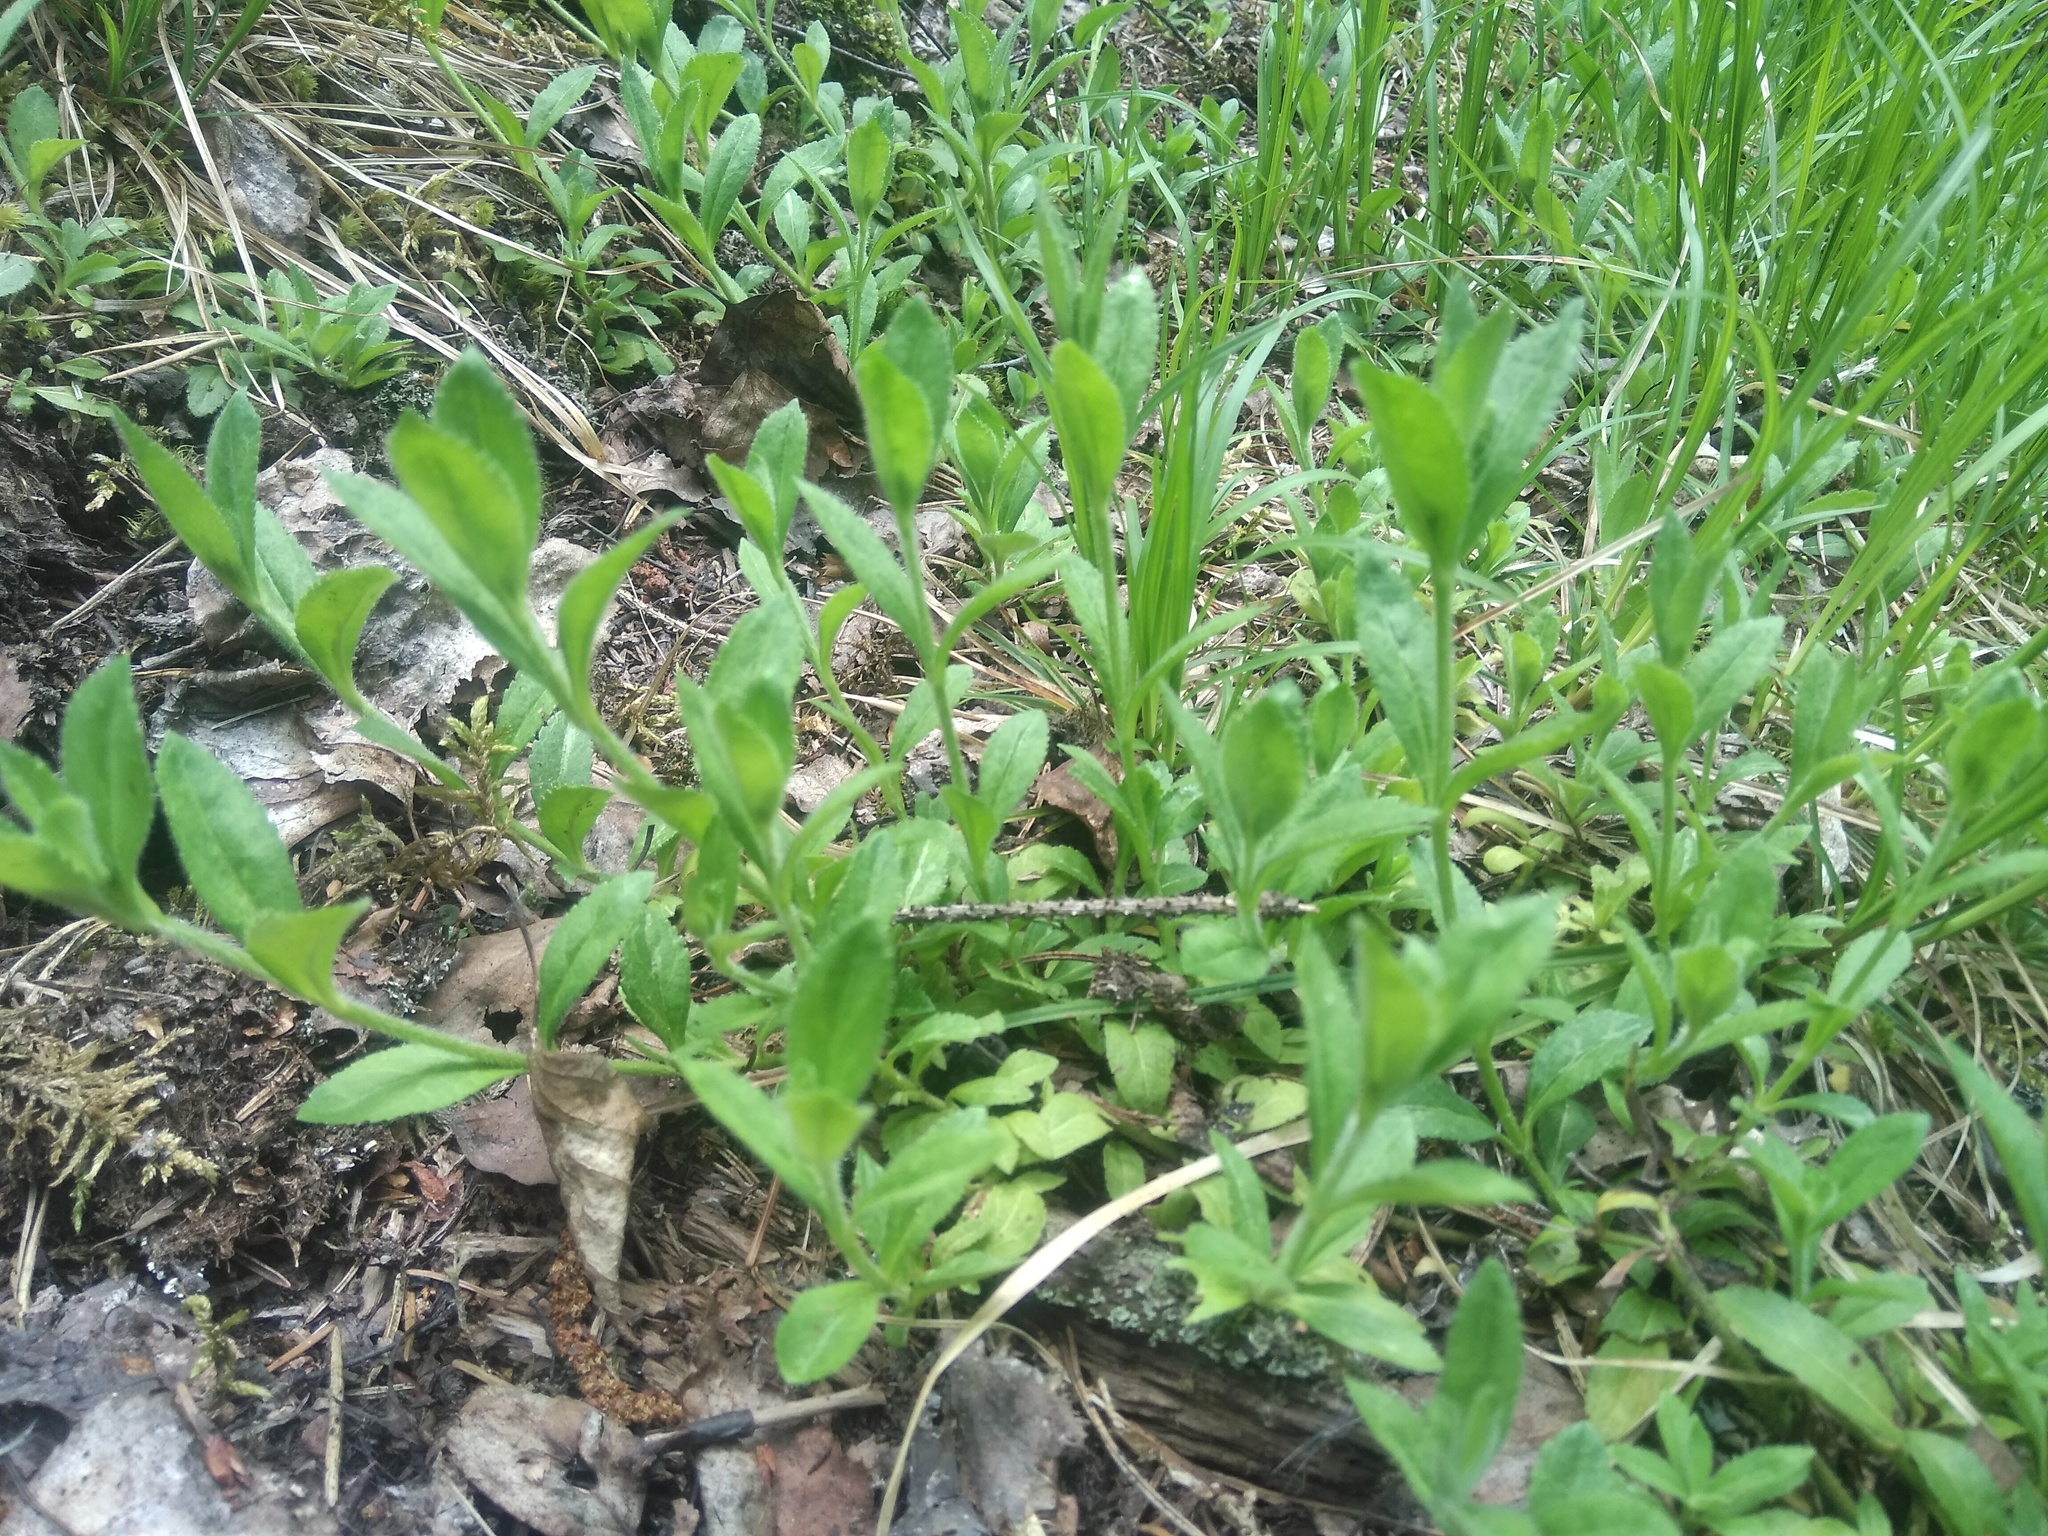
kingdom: Plantae
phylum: Tracheophyta
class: Magnoliopsida
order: Lamiales
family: Plantaginaceae
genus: Veronica
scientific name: Veronica officinalis
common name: Common speedwell
